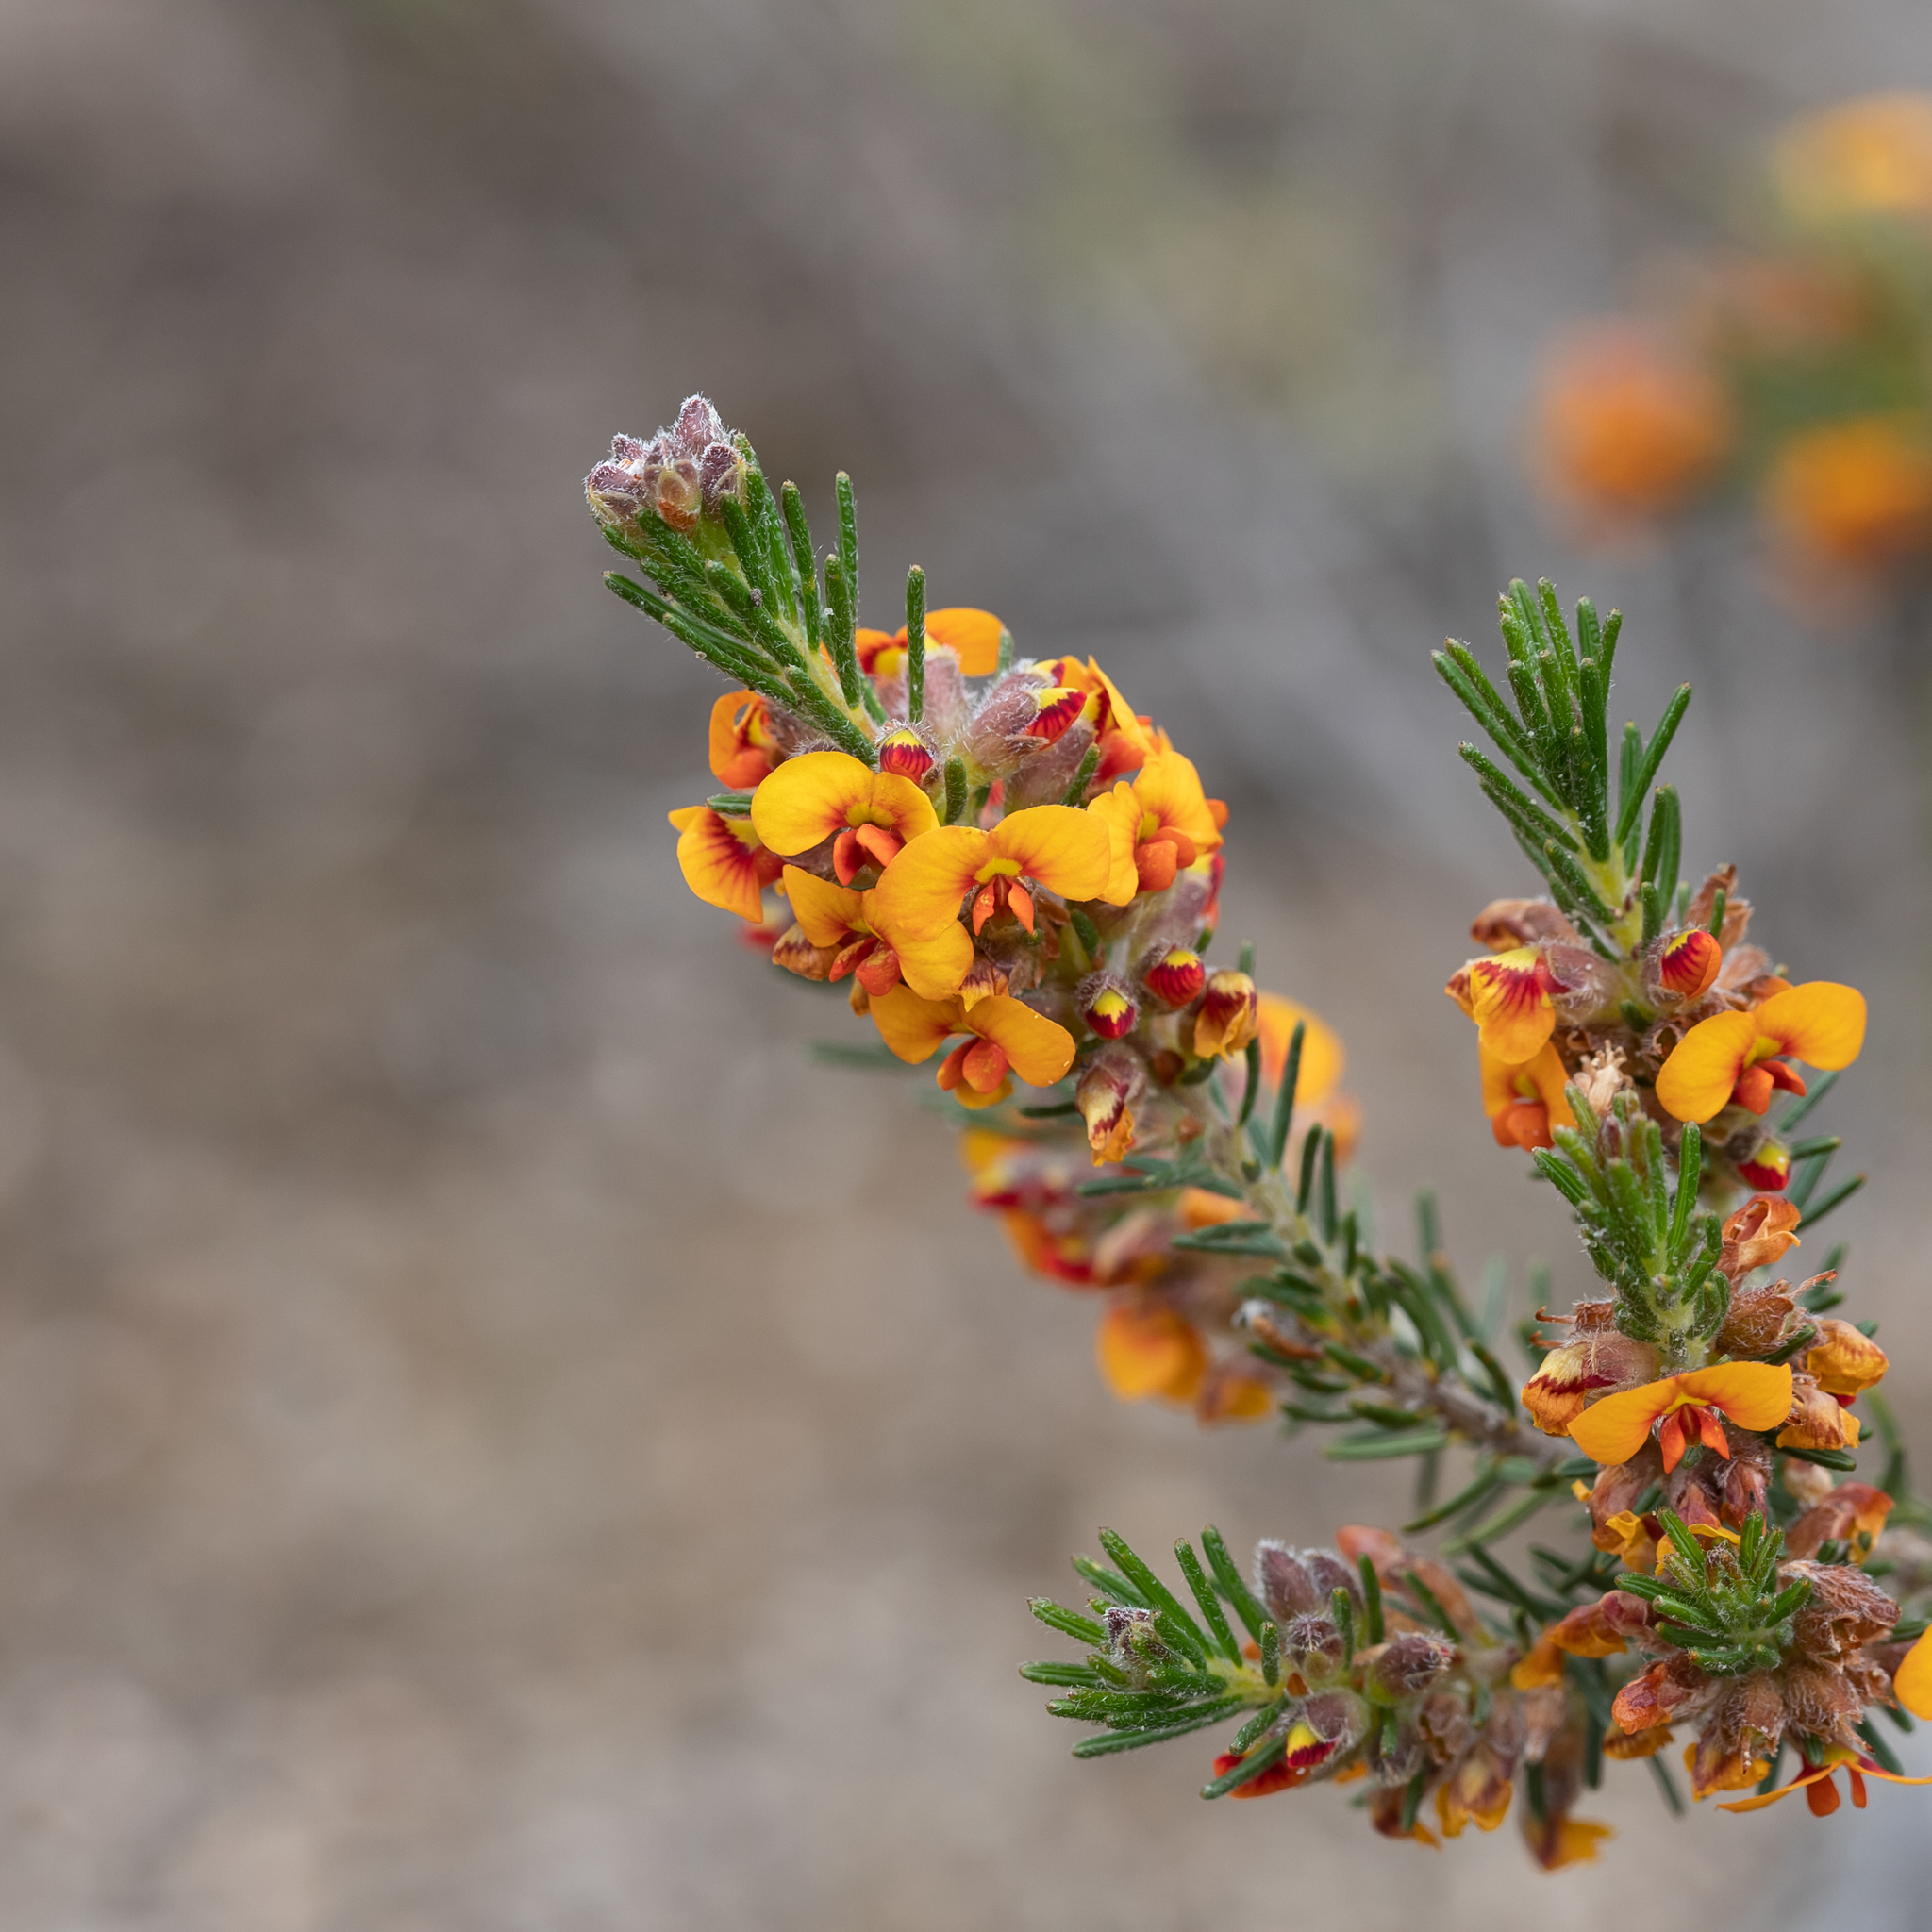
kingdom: Plantae
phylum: Tracheophyta
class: Magnoliopsida
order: Fabales
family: Fabaceae
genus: Dillwynia
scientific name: Dillwynia sericea
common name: Showy parrot-pea
